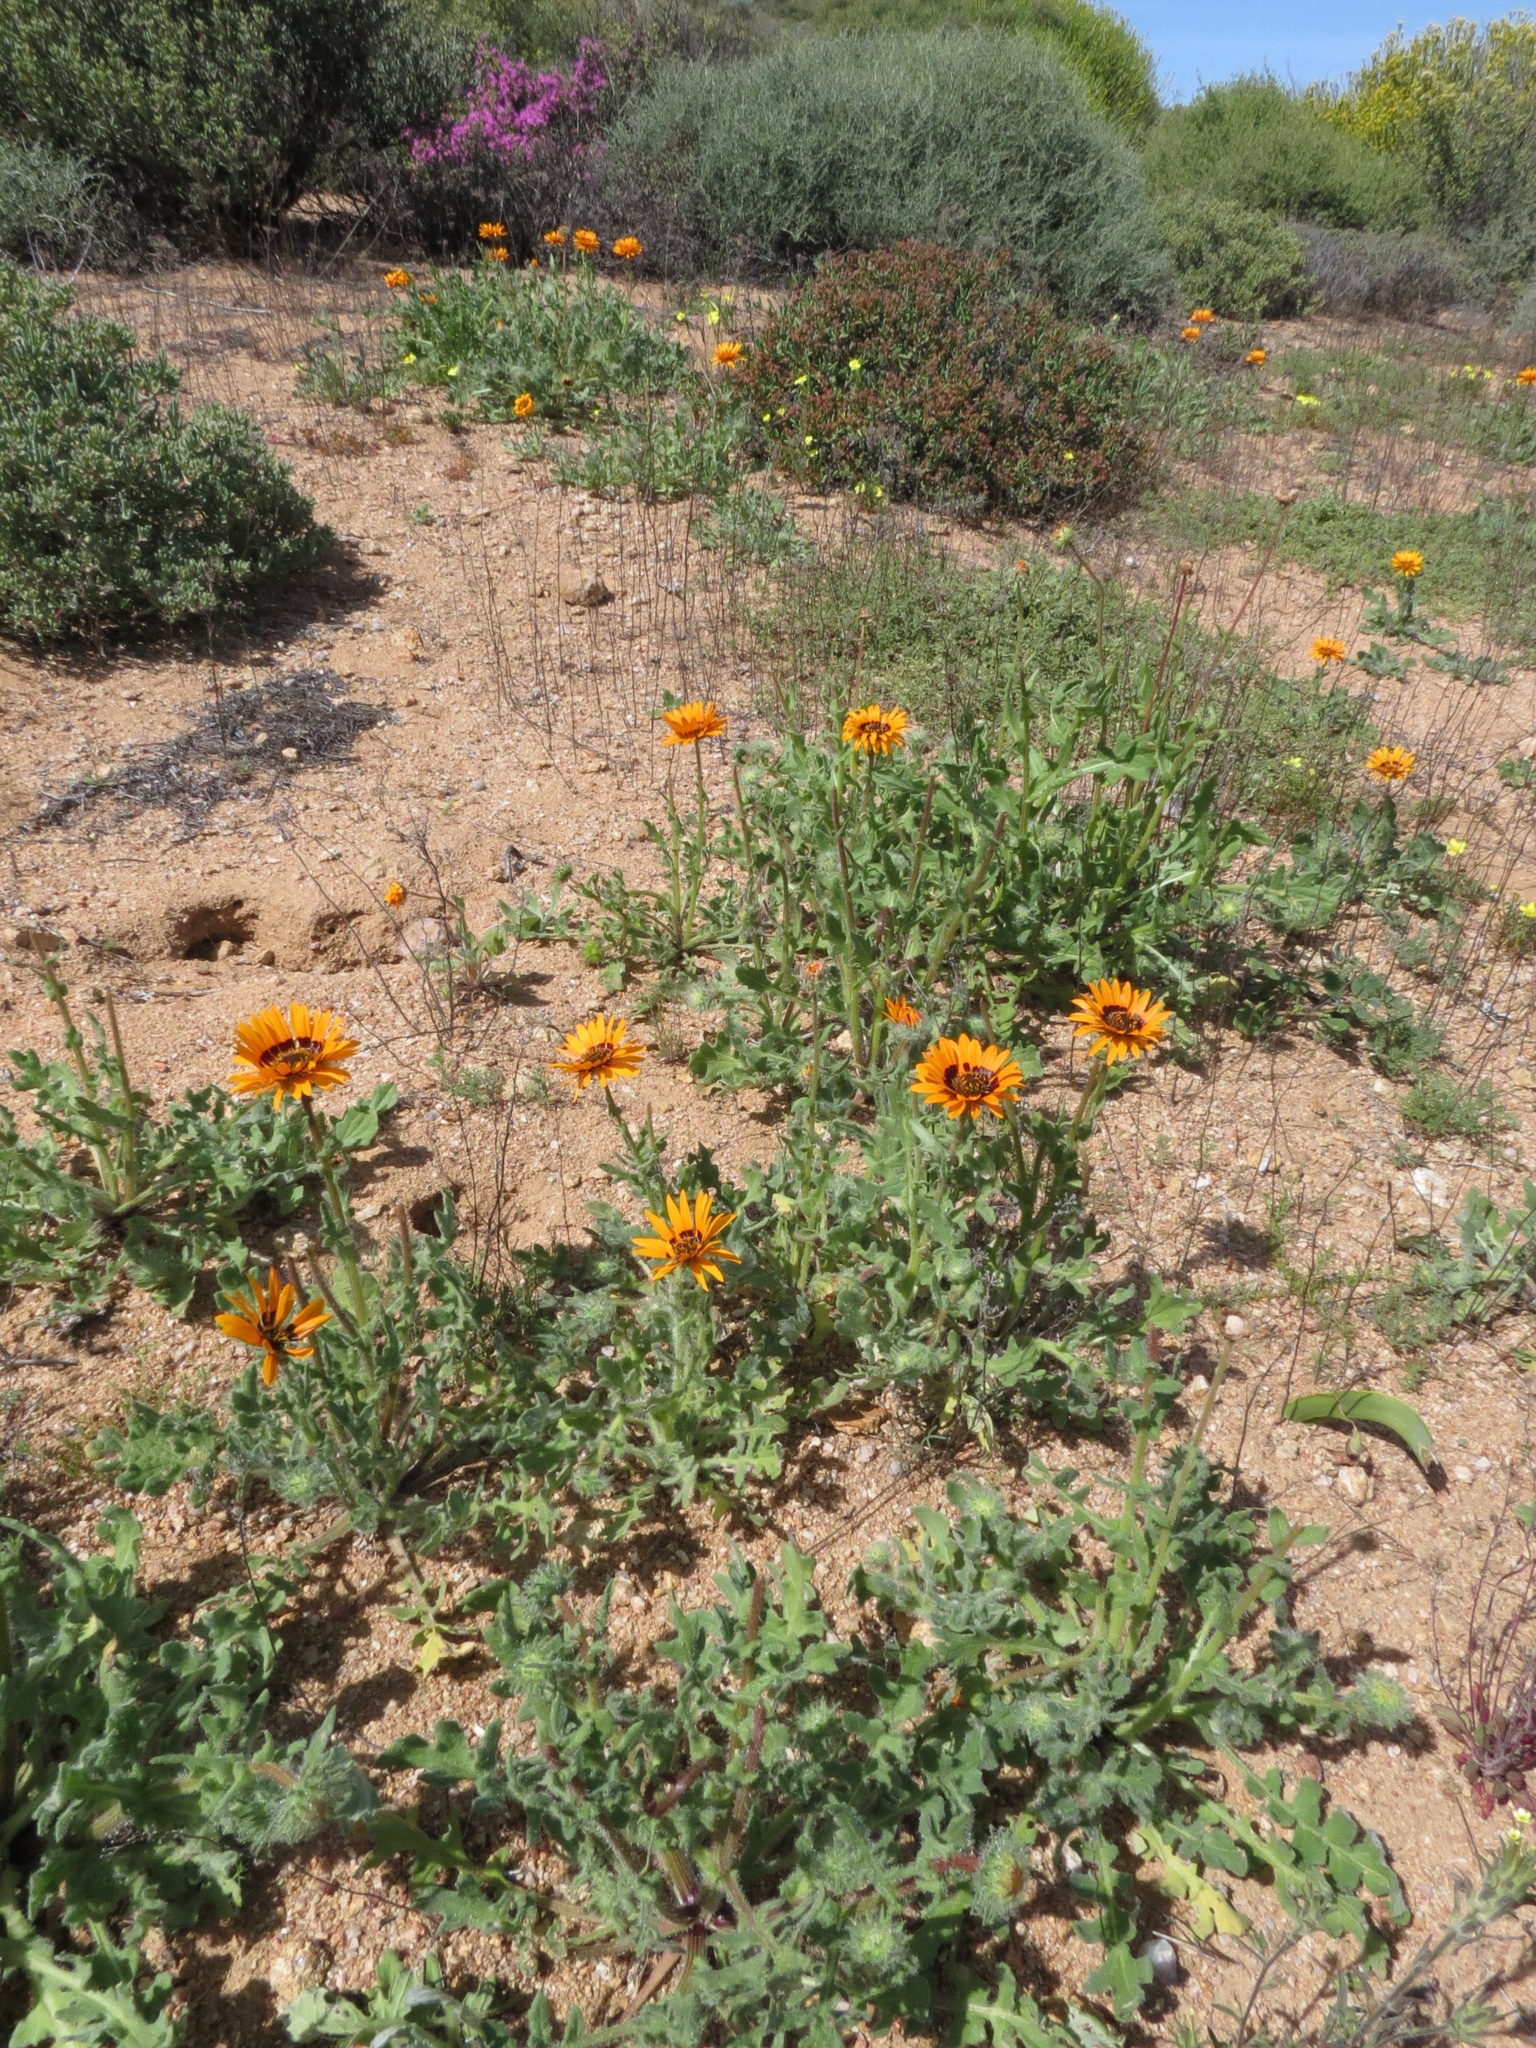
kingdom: Plantae
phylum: Tracheophyta
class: Magnoliopsida
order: Asterales
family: Asteraceae
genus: Arctotis
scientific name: Arctotis fastuosa
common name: Monarch of the veld
